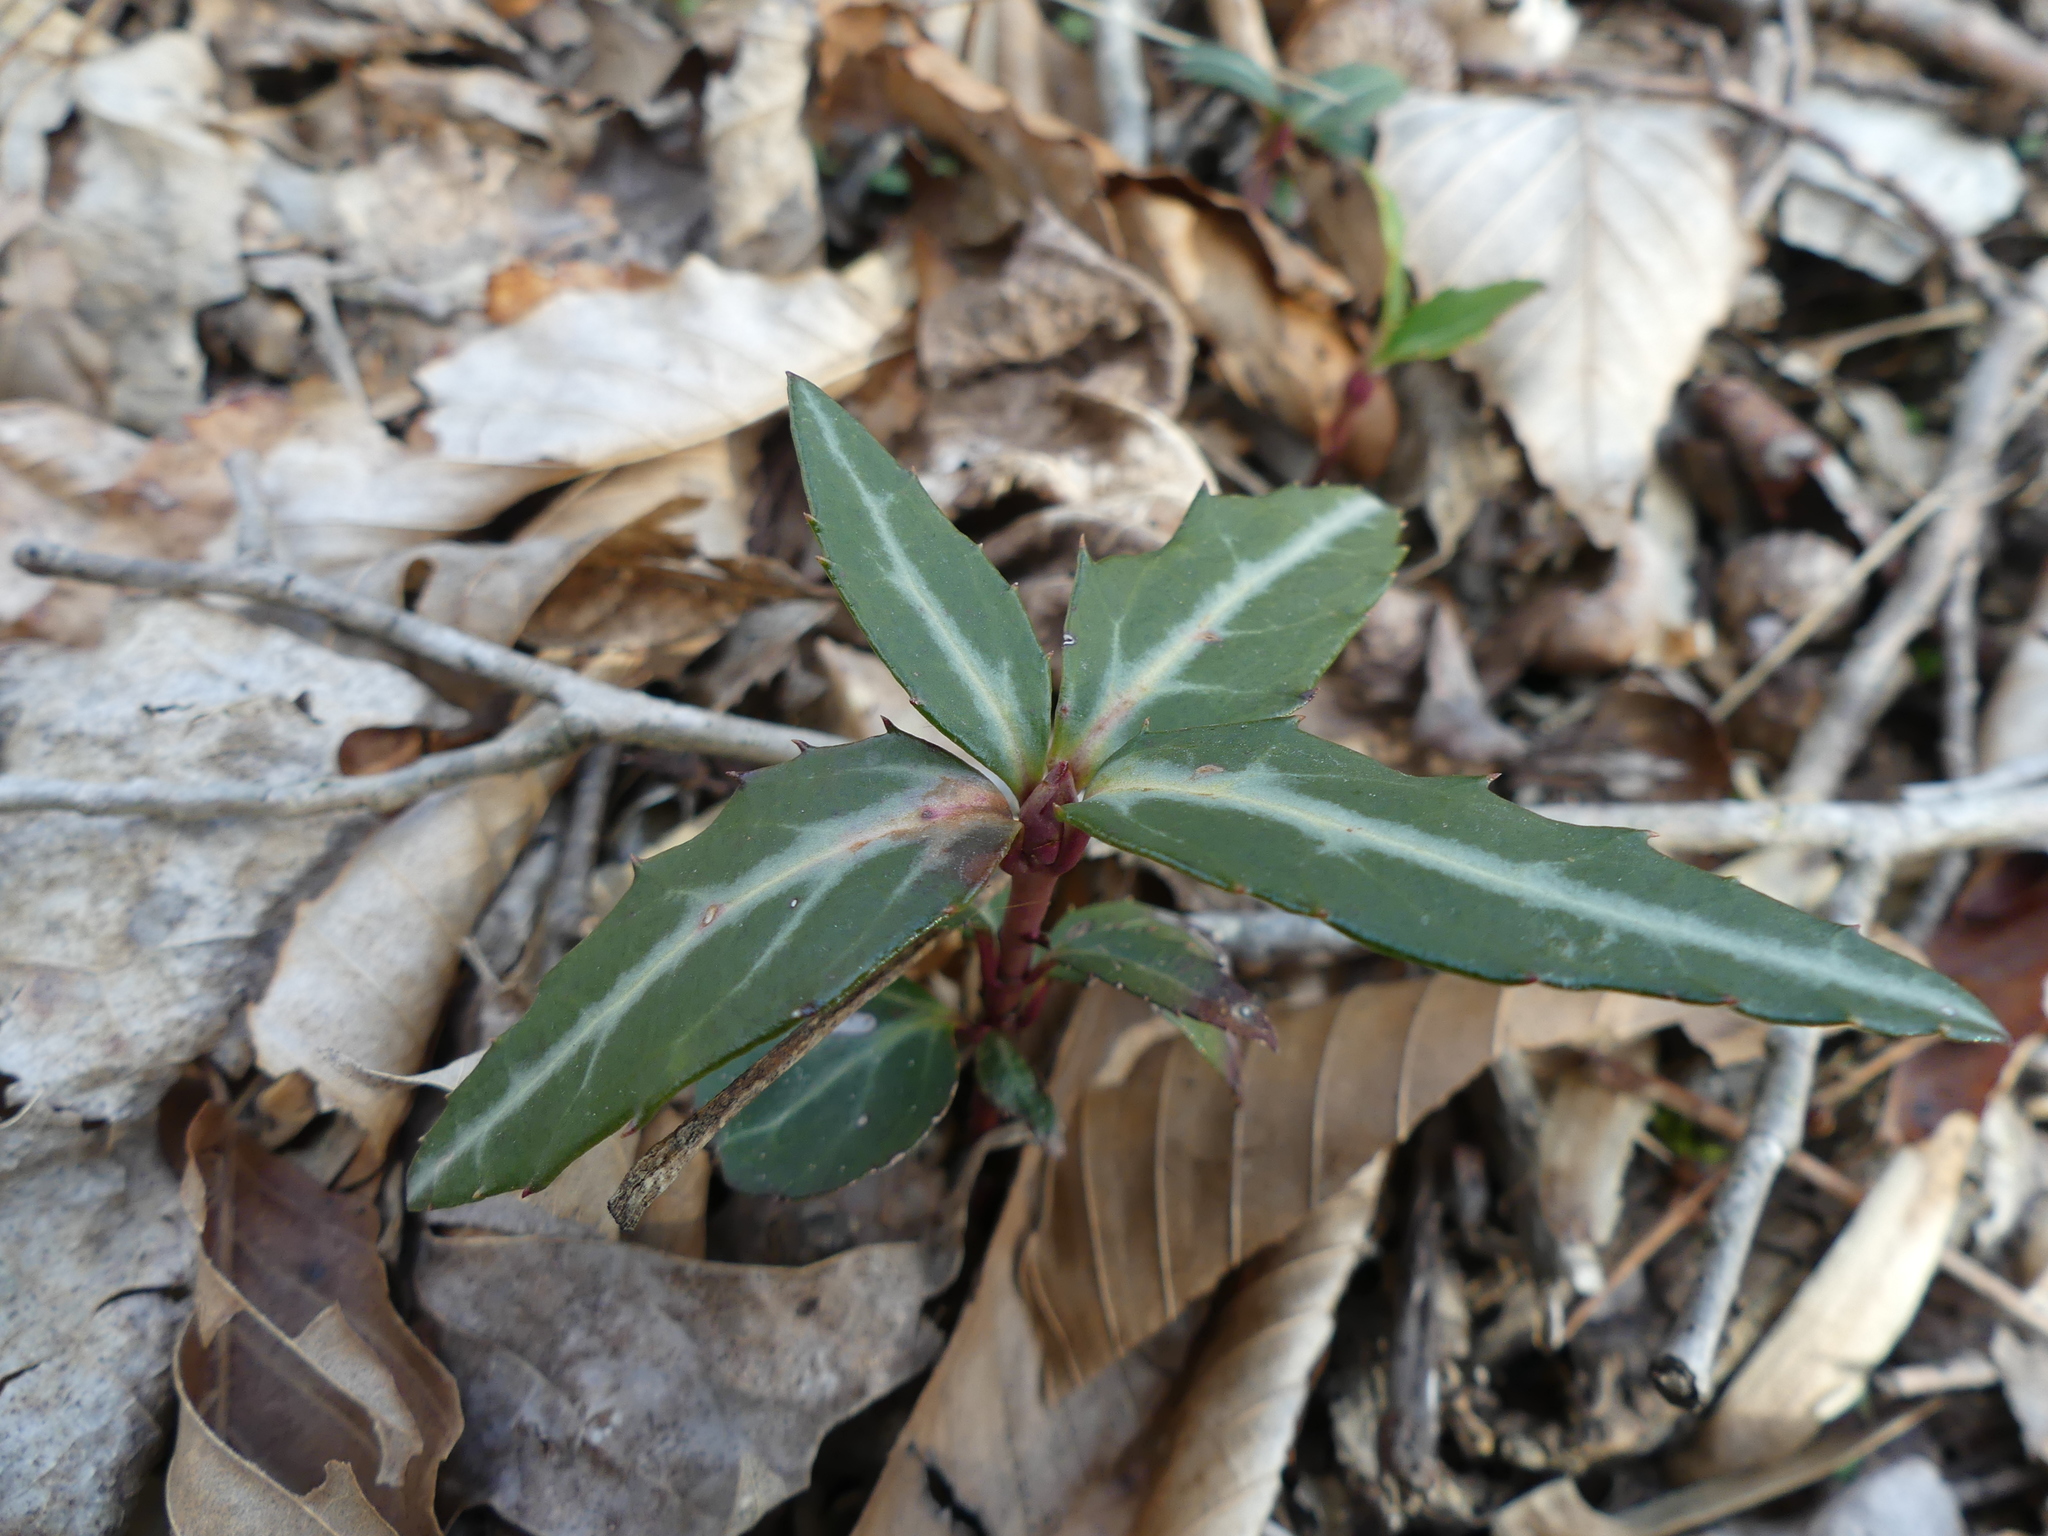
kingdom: Plantae
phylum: Tracheophyta
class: Magnoliopsida
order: Ericales
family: Ericaceae
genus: Chimaphila
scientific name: Chimaphila maculata
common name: Spotted pipsissewa
